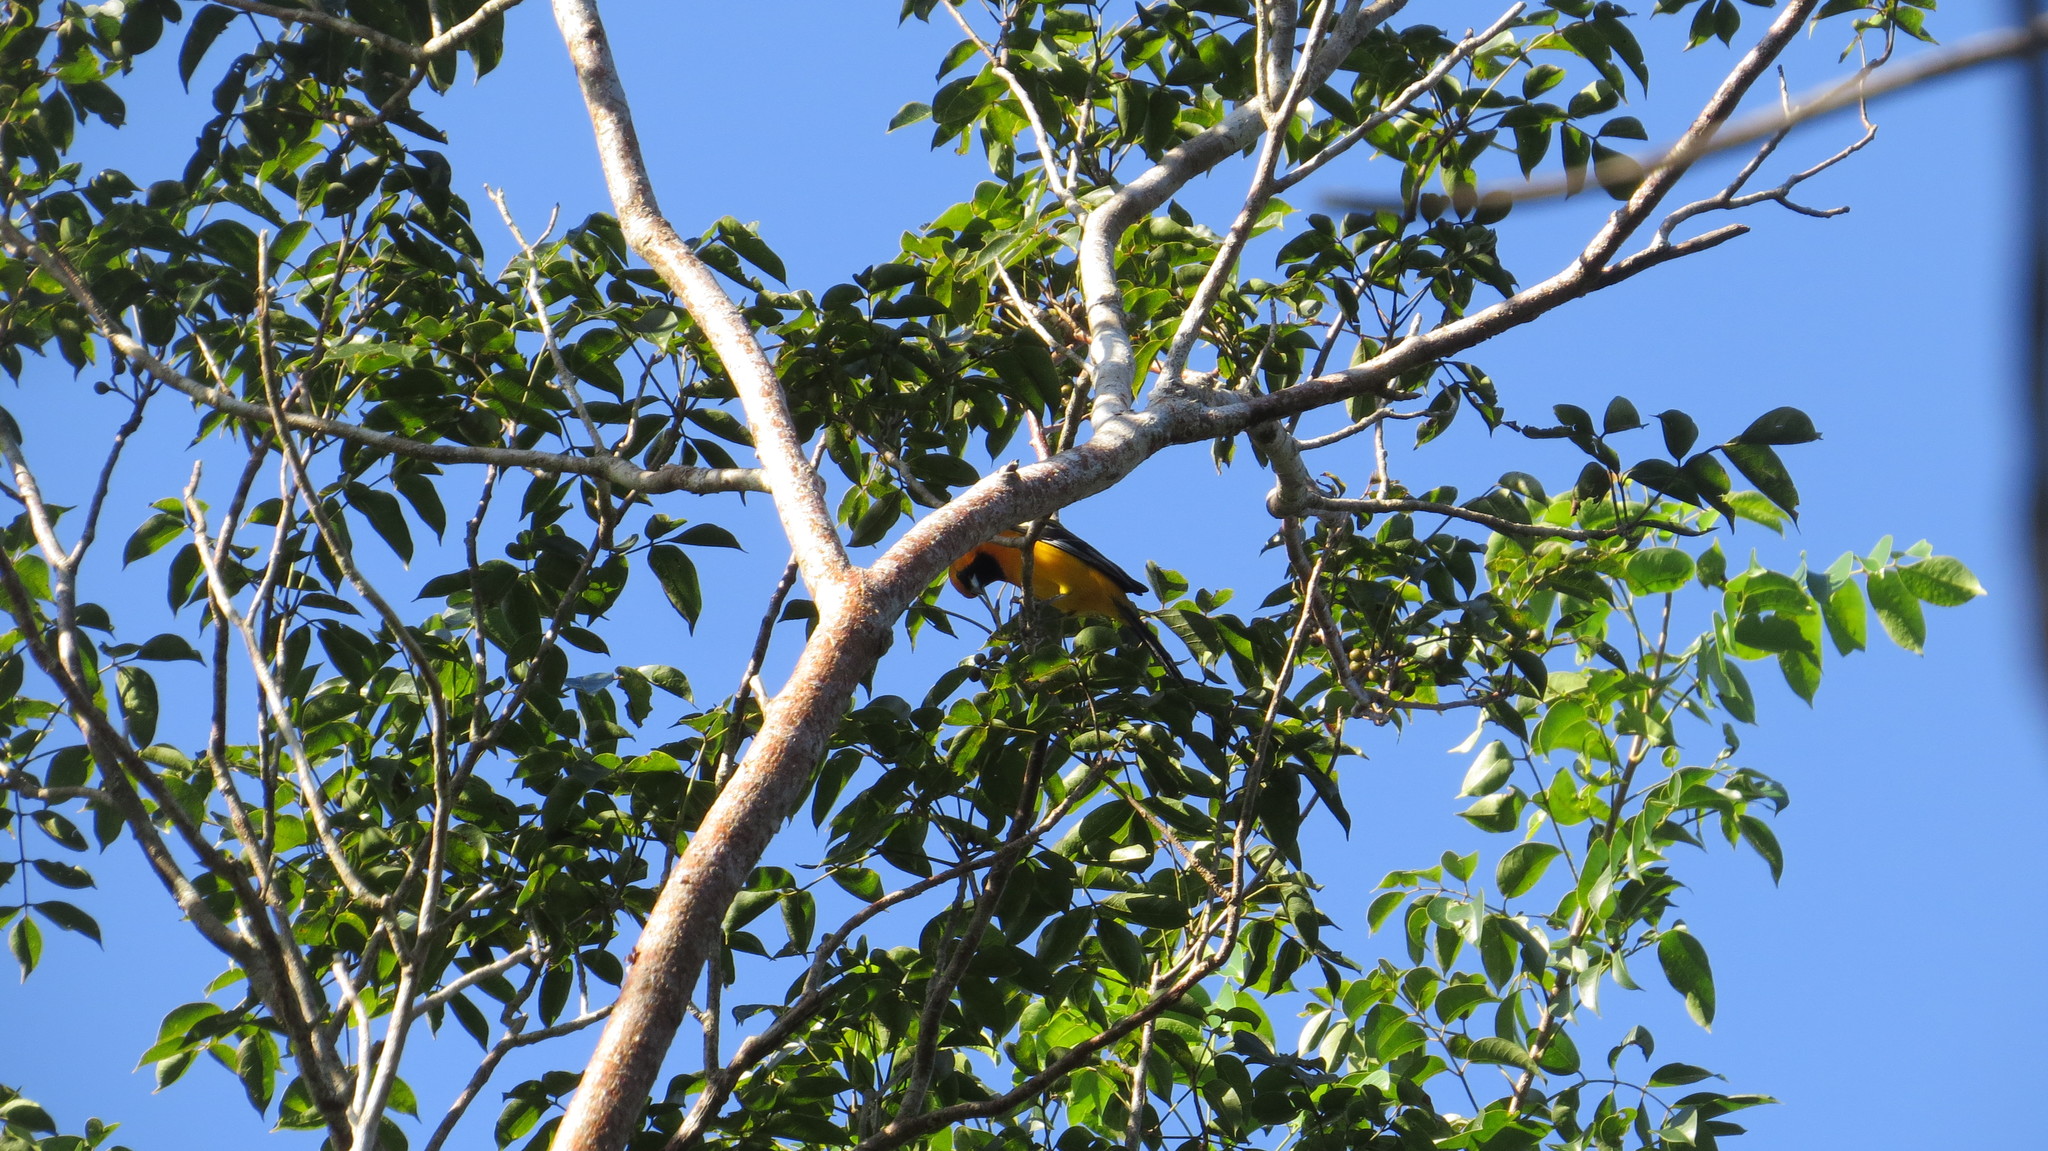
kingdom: Animalia
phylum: Chordata
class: Aves
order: Passeriformes
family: Icteridae
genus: Icterus
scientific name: Icterus cucullatus
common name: Hooded oriole
